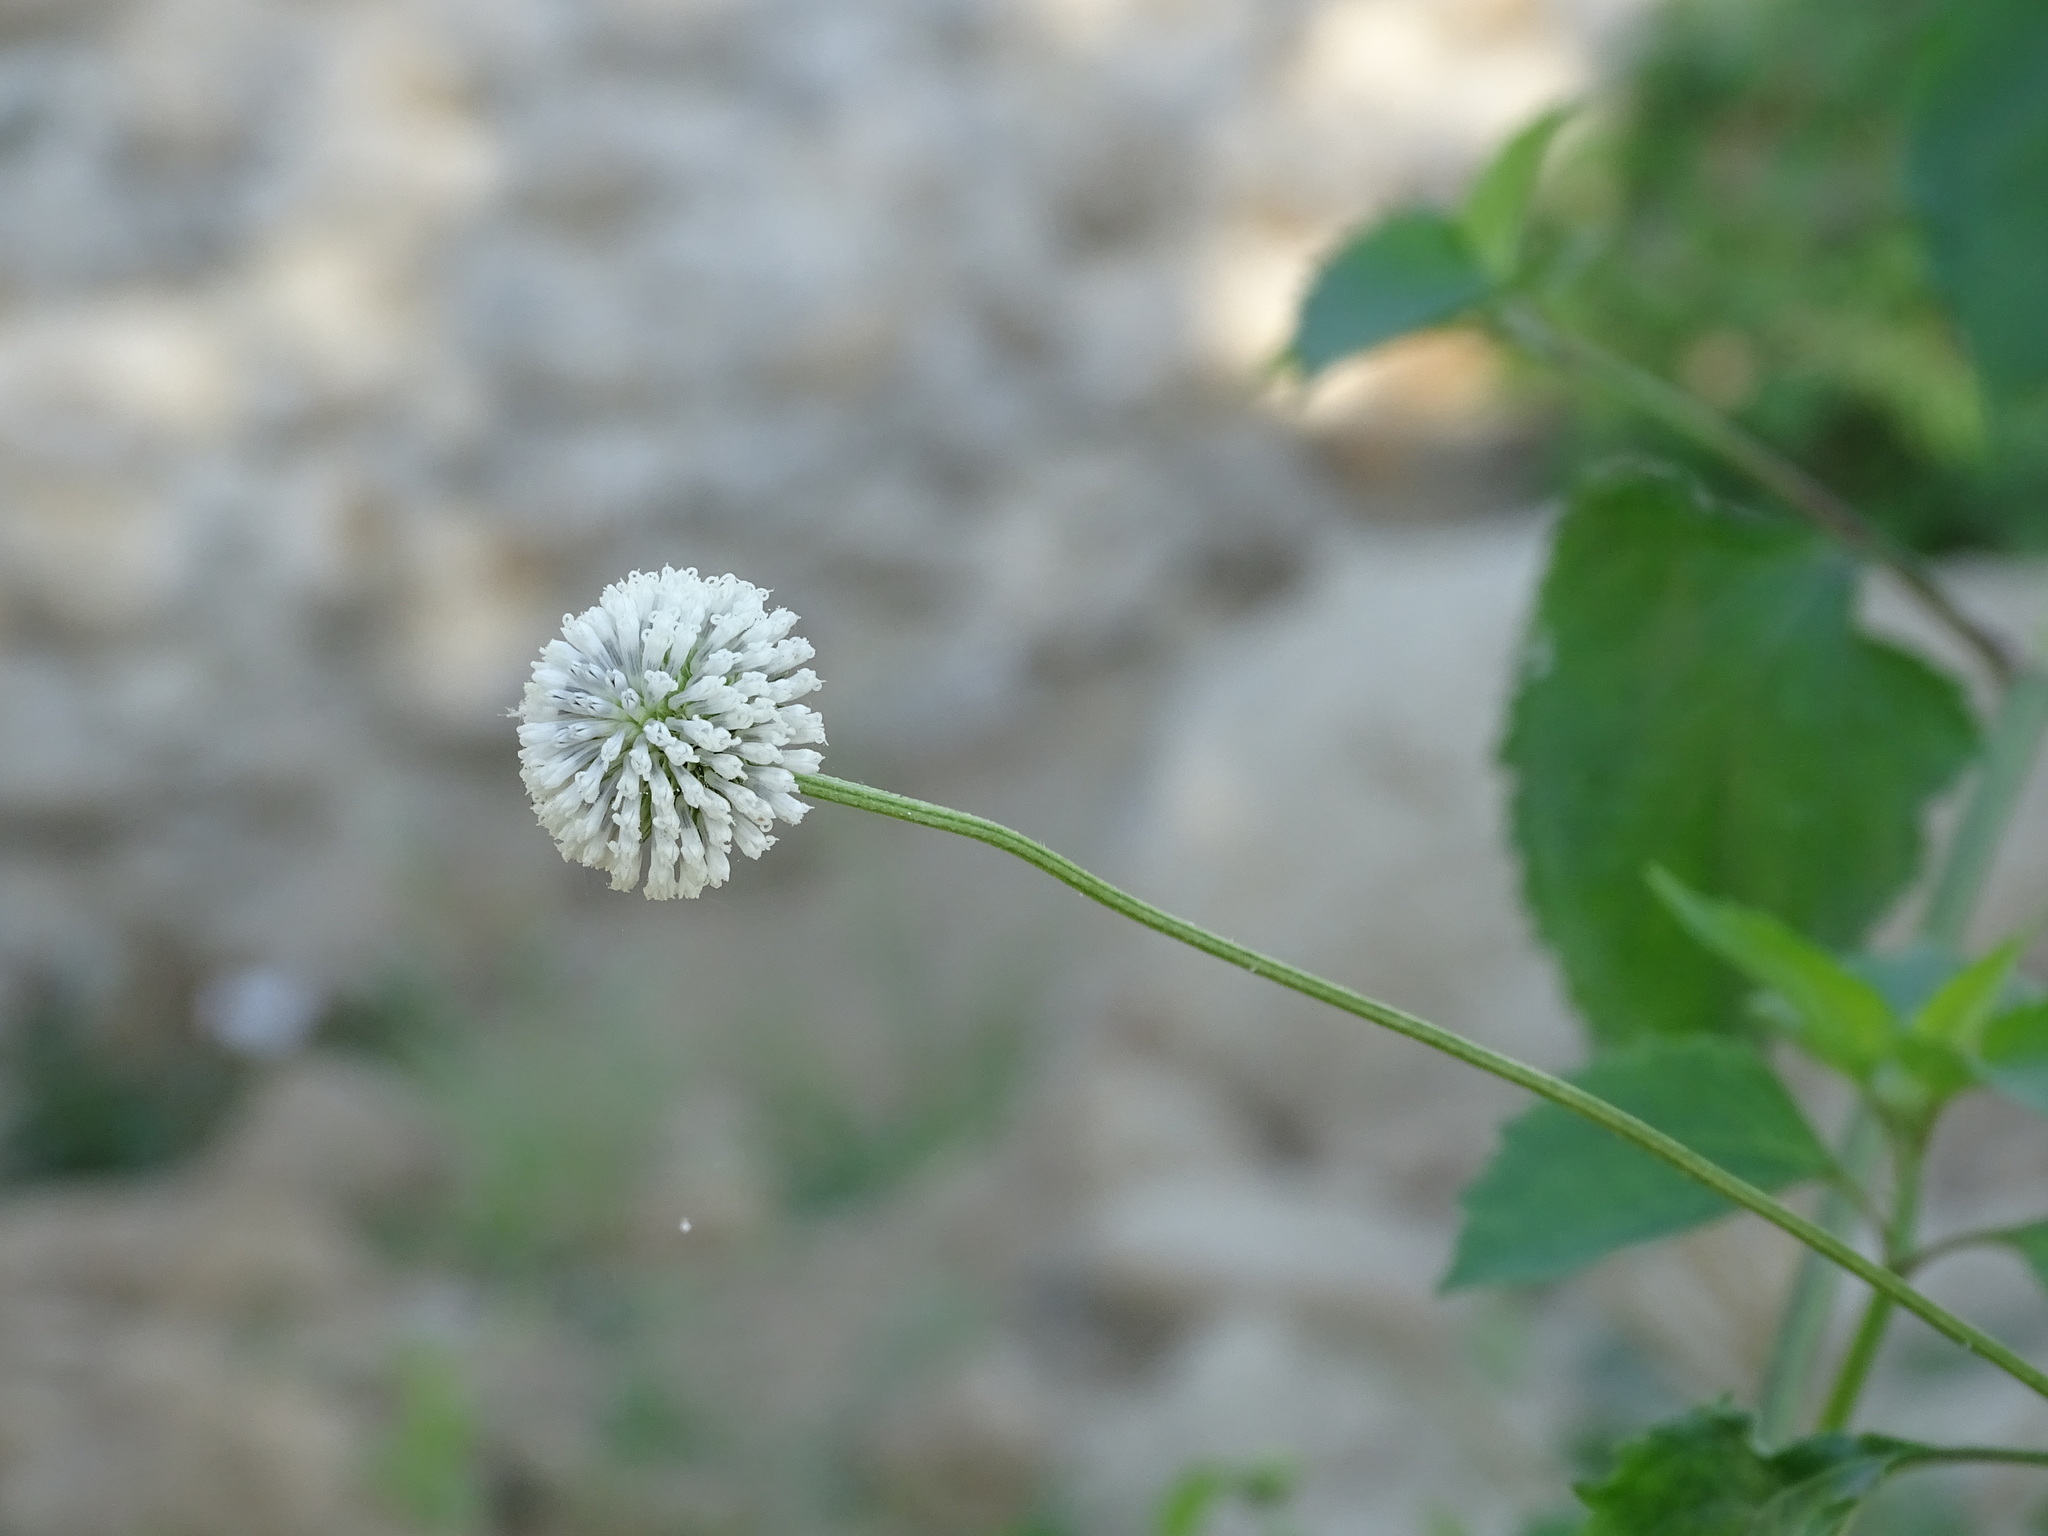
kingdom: Plantae
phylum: Tracheophyta
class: Magnoliopsida
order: Asterales
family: Asteraceae
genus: Melanthera
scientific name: Melanthera nivea
